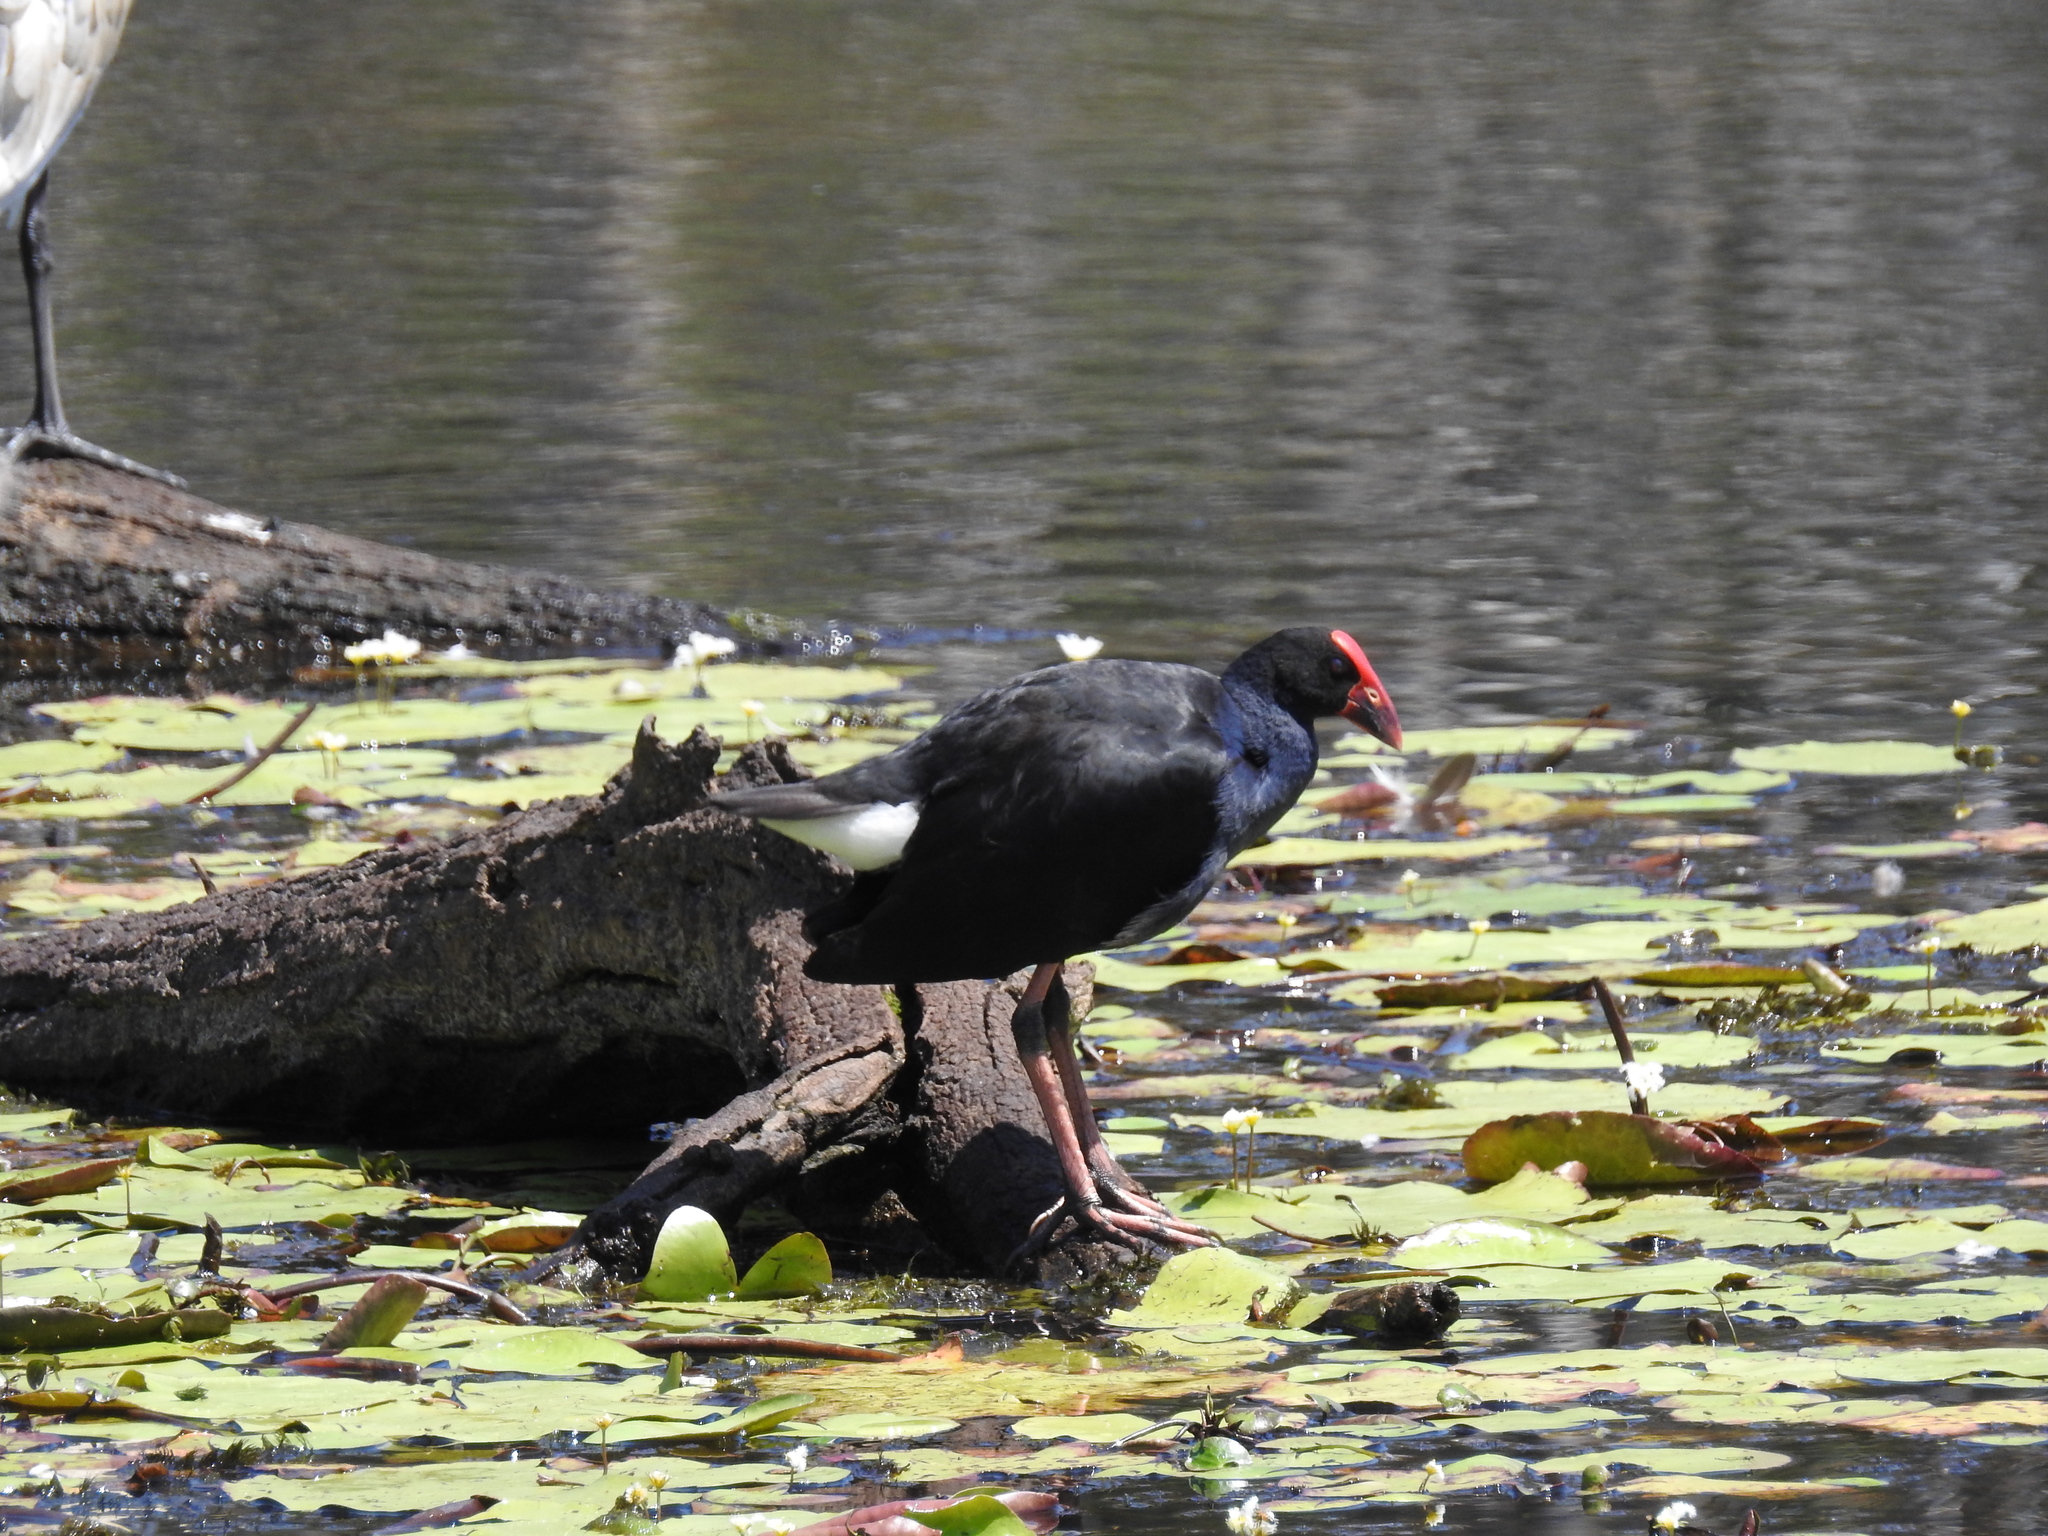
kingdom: Animalia
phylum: Chordata
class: Aves
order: Gruiformes
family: Rallidae
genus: Porphyrio
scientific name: Porphyrio melanotus
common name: Australasian swamphen
